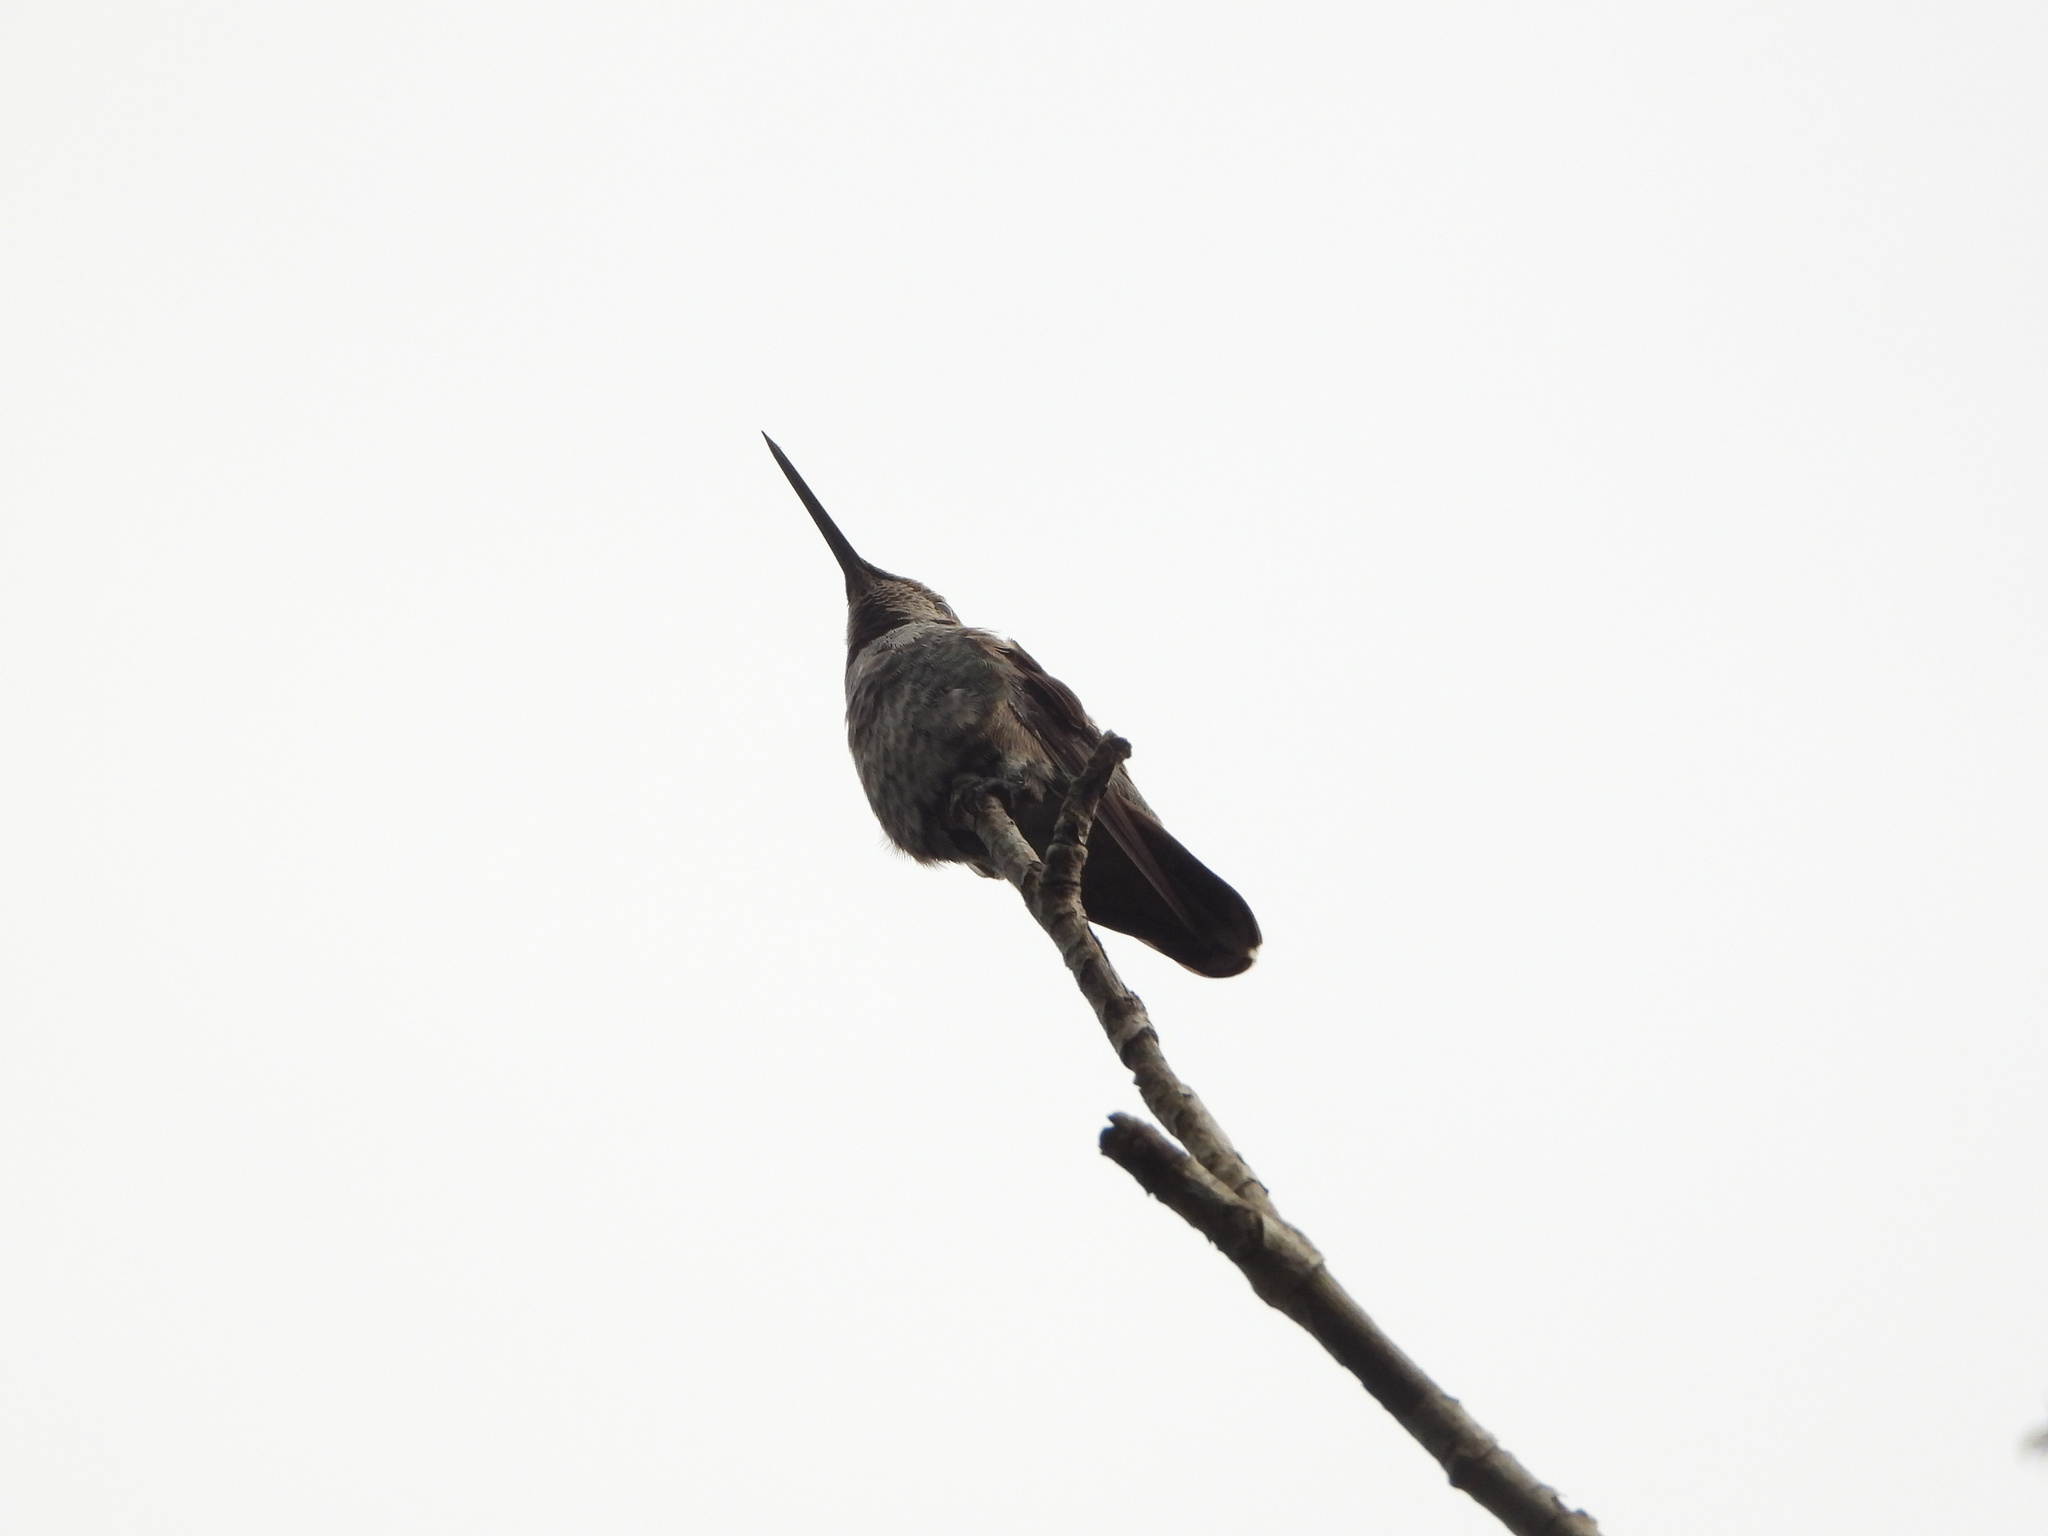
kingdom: Animalia
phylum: Chordata
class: Aves
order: Apodiformes
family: Trochilidae
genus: Calypte
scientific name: Calypte anna
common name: Anna's hummingbird
